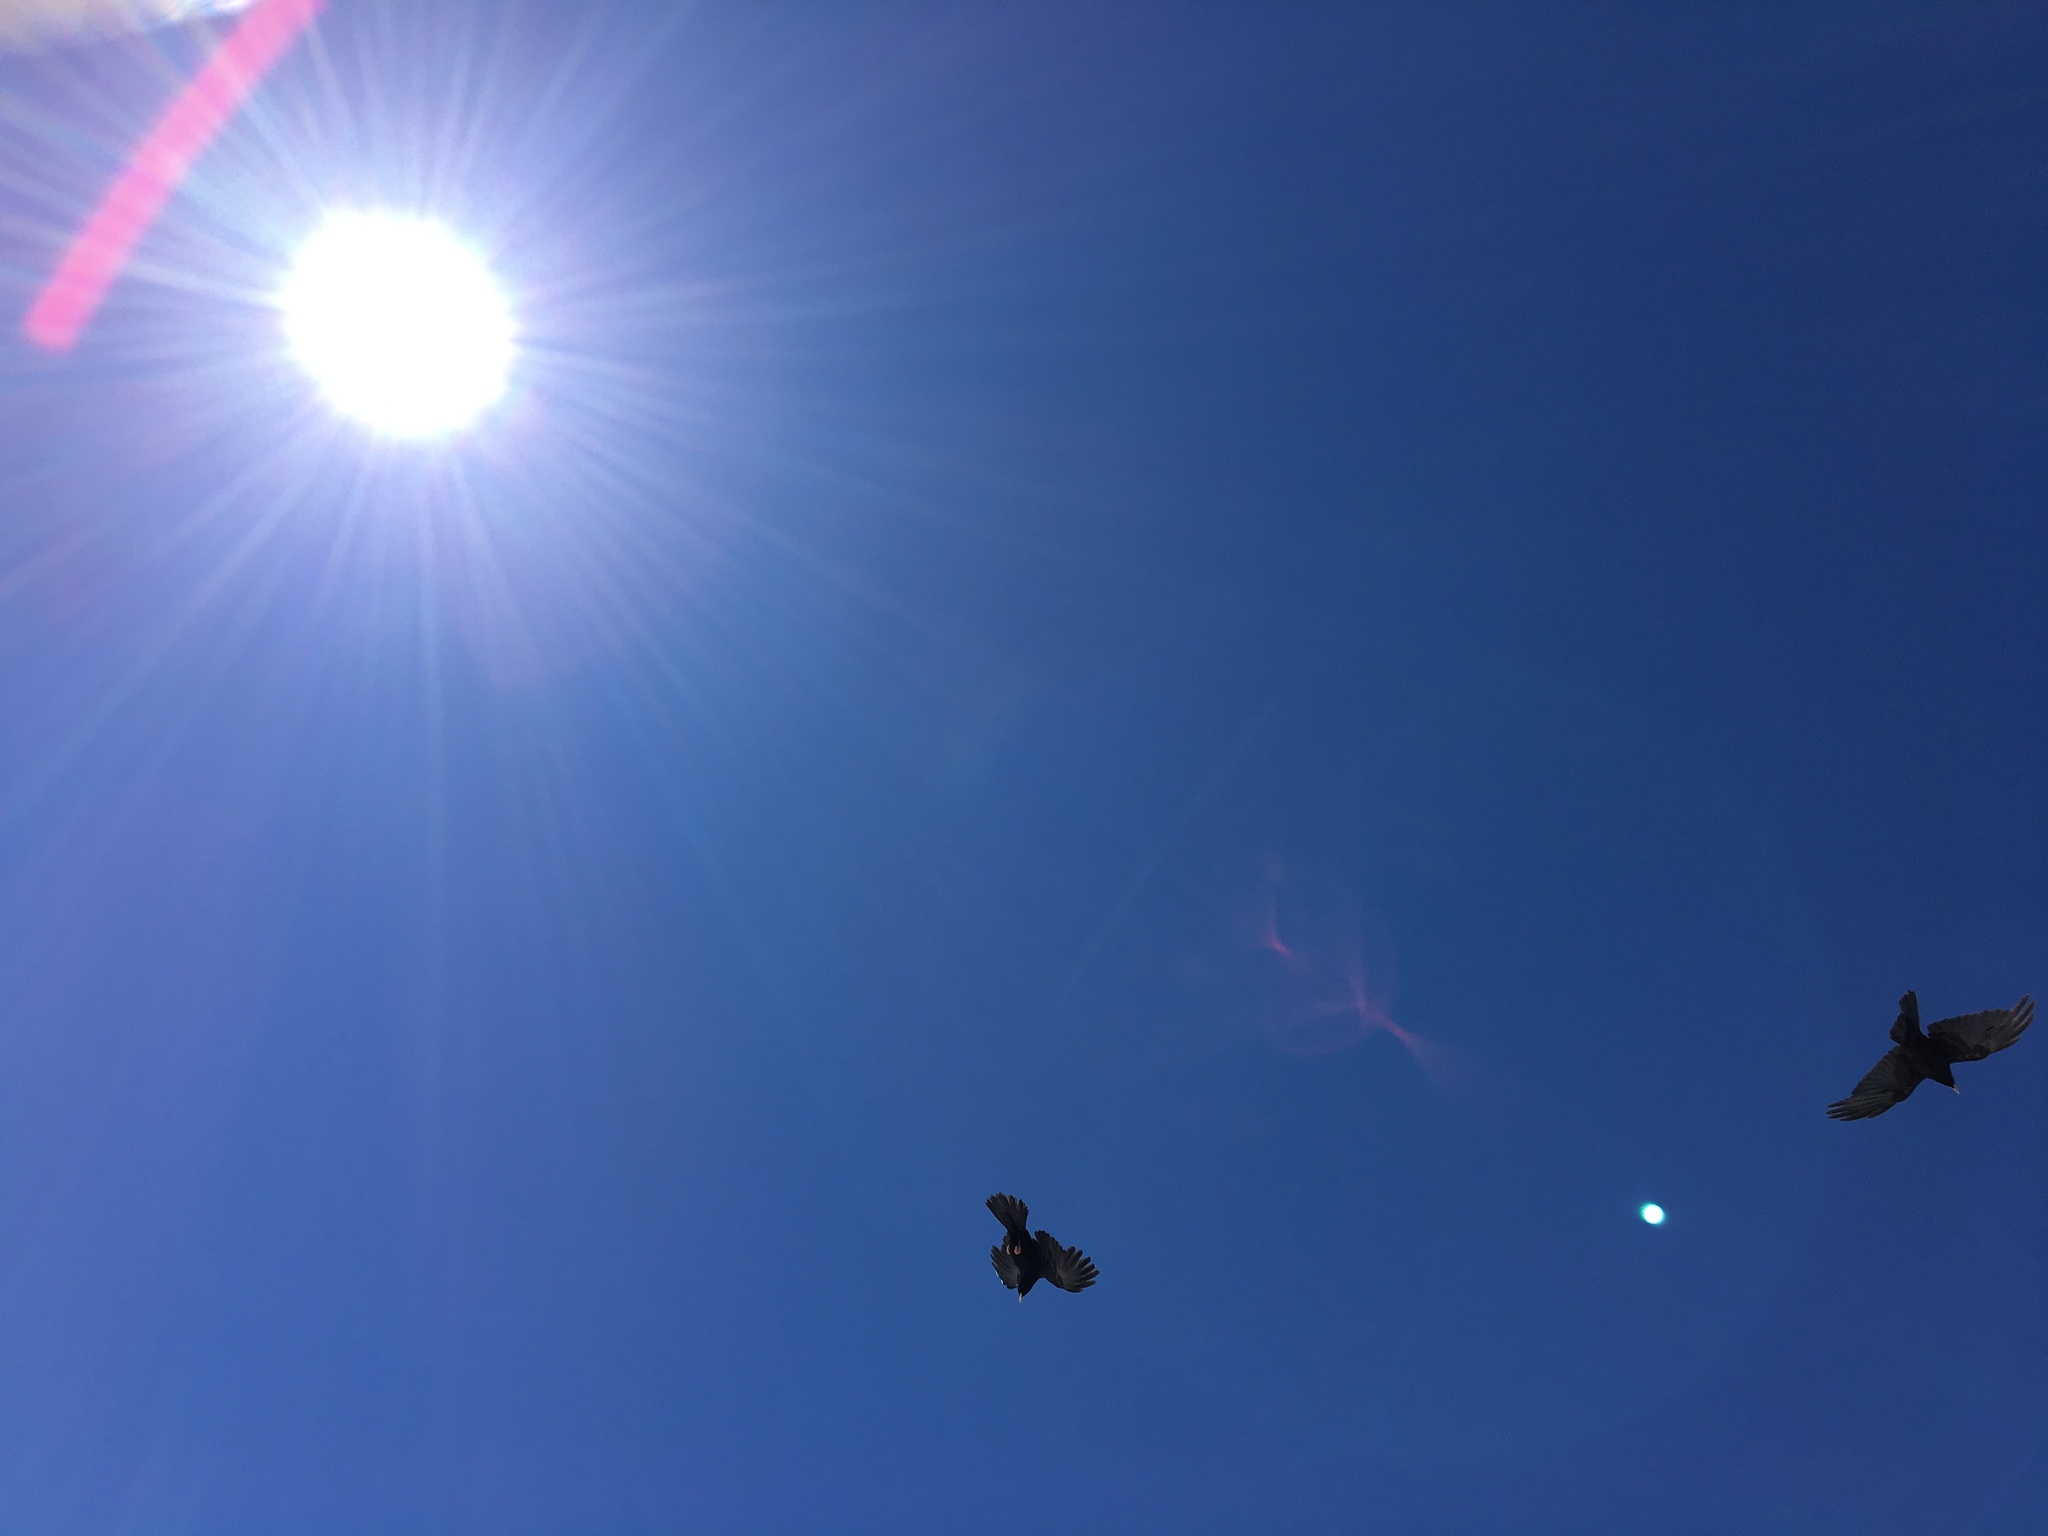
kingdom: Animalia
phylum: Chordata
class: Aves
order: Passeriformes
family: Corvidae
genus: Pyrrhocorax
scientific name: Pyrrhocorax graculus
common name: Alpine chough
